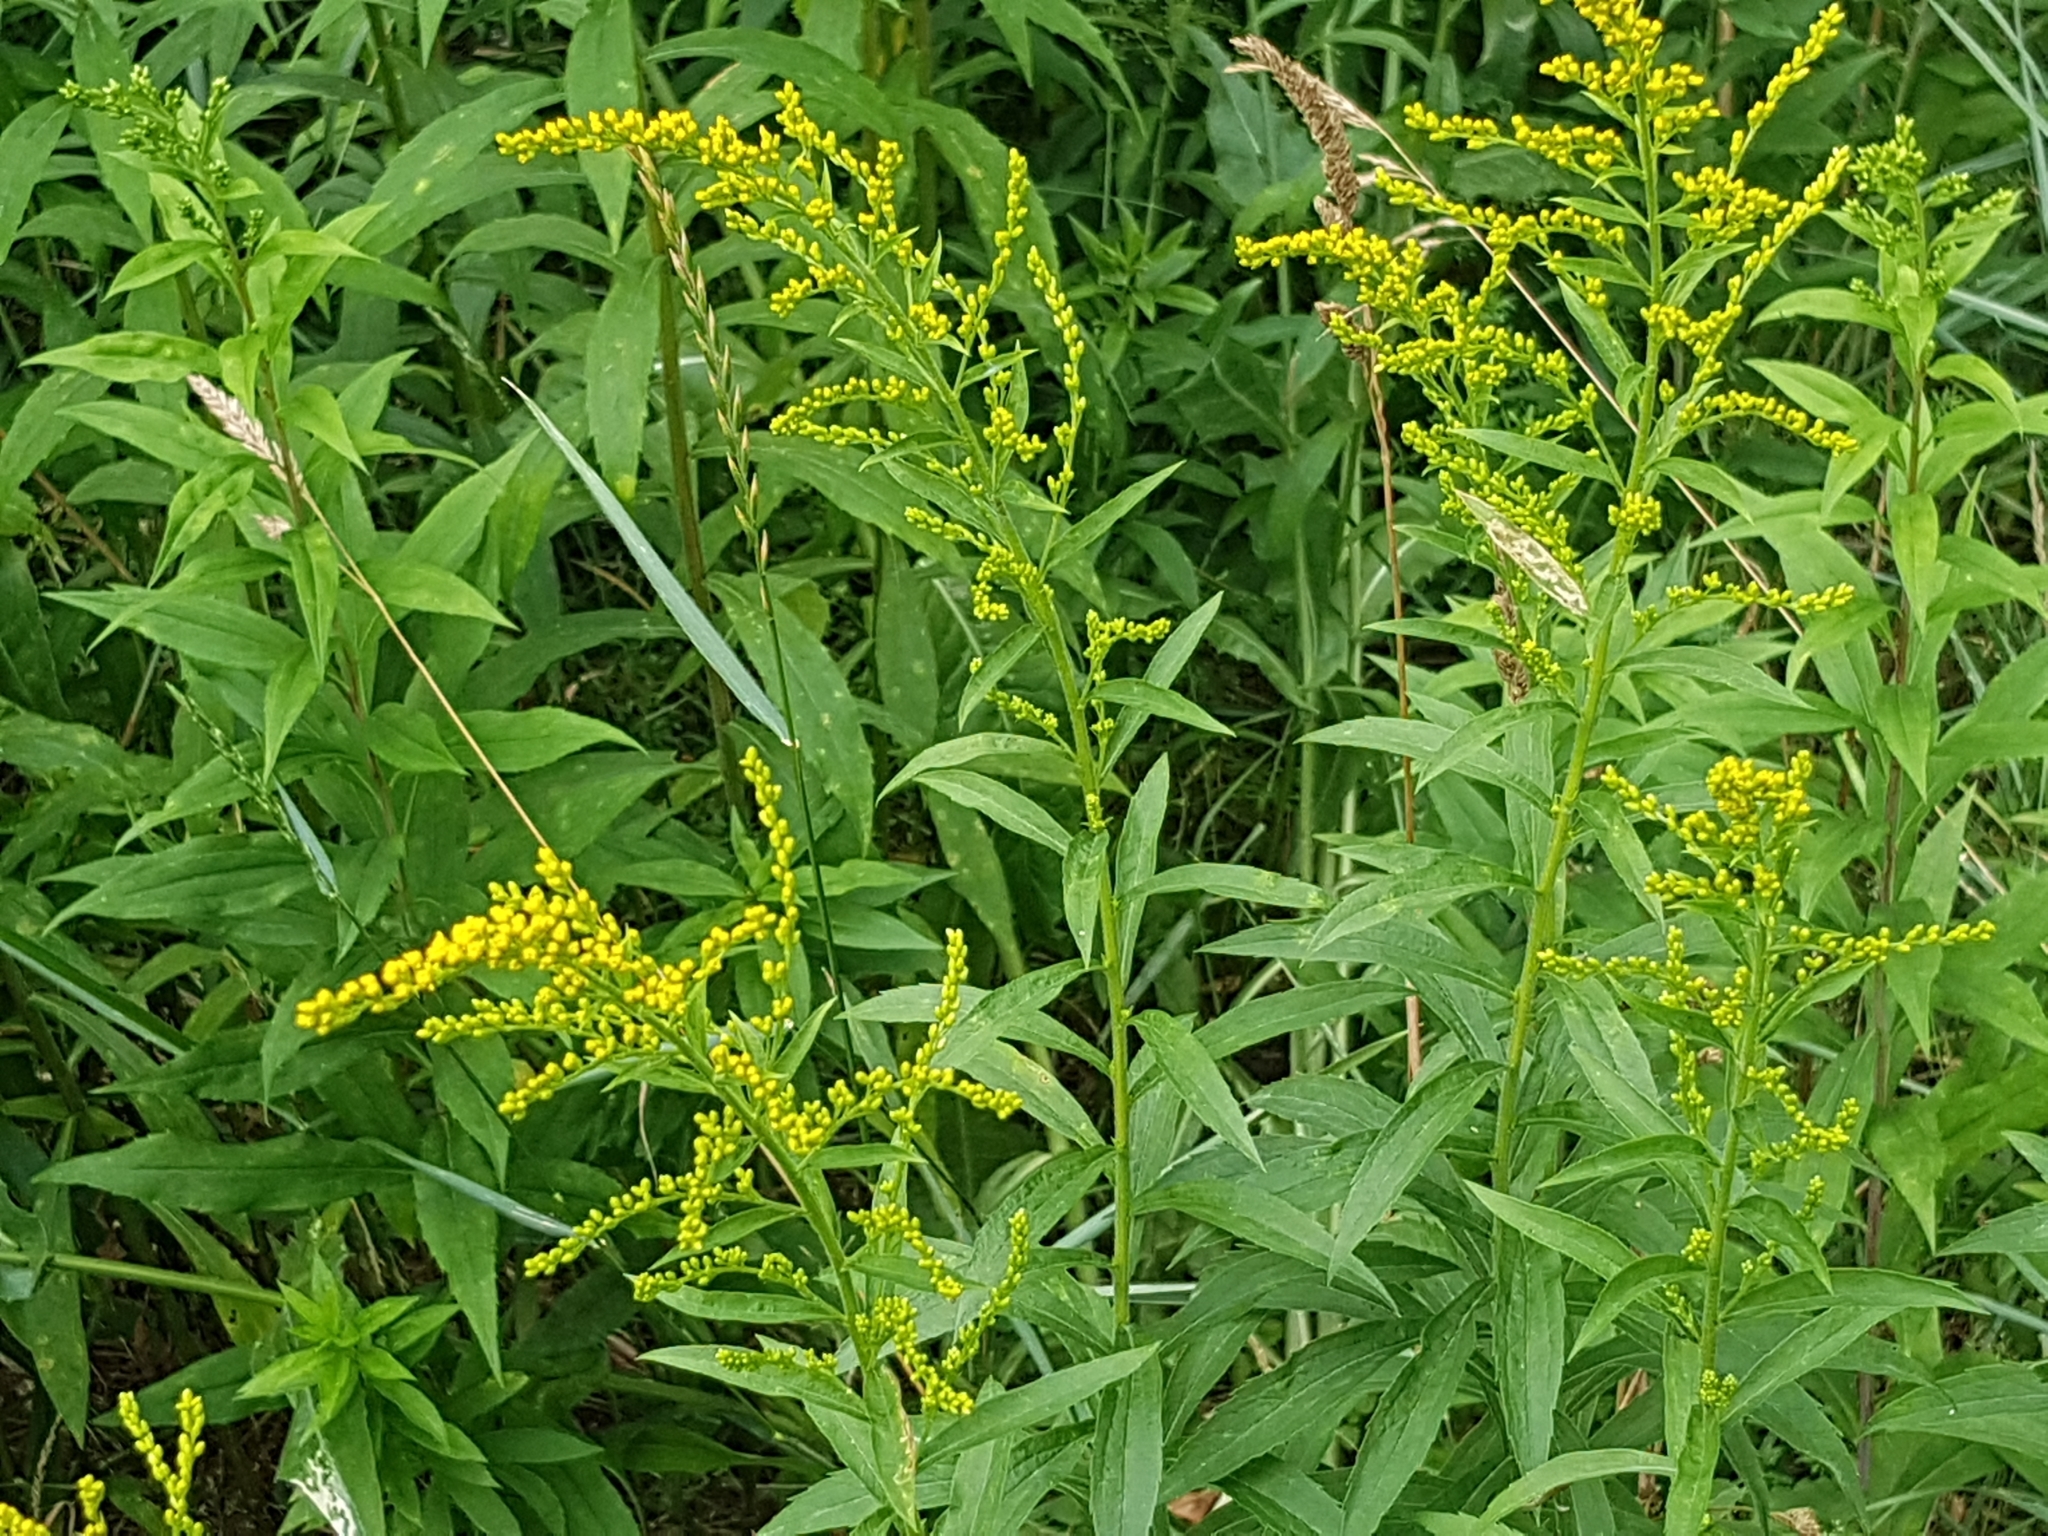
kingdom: Plantae
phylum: Tracheophyta
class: Magnoliopsida
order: Asterales
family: Asteraceae
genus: Solidago
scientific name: Solidago canadensis
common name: Canada goldenrod
